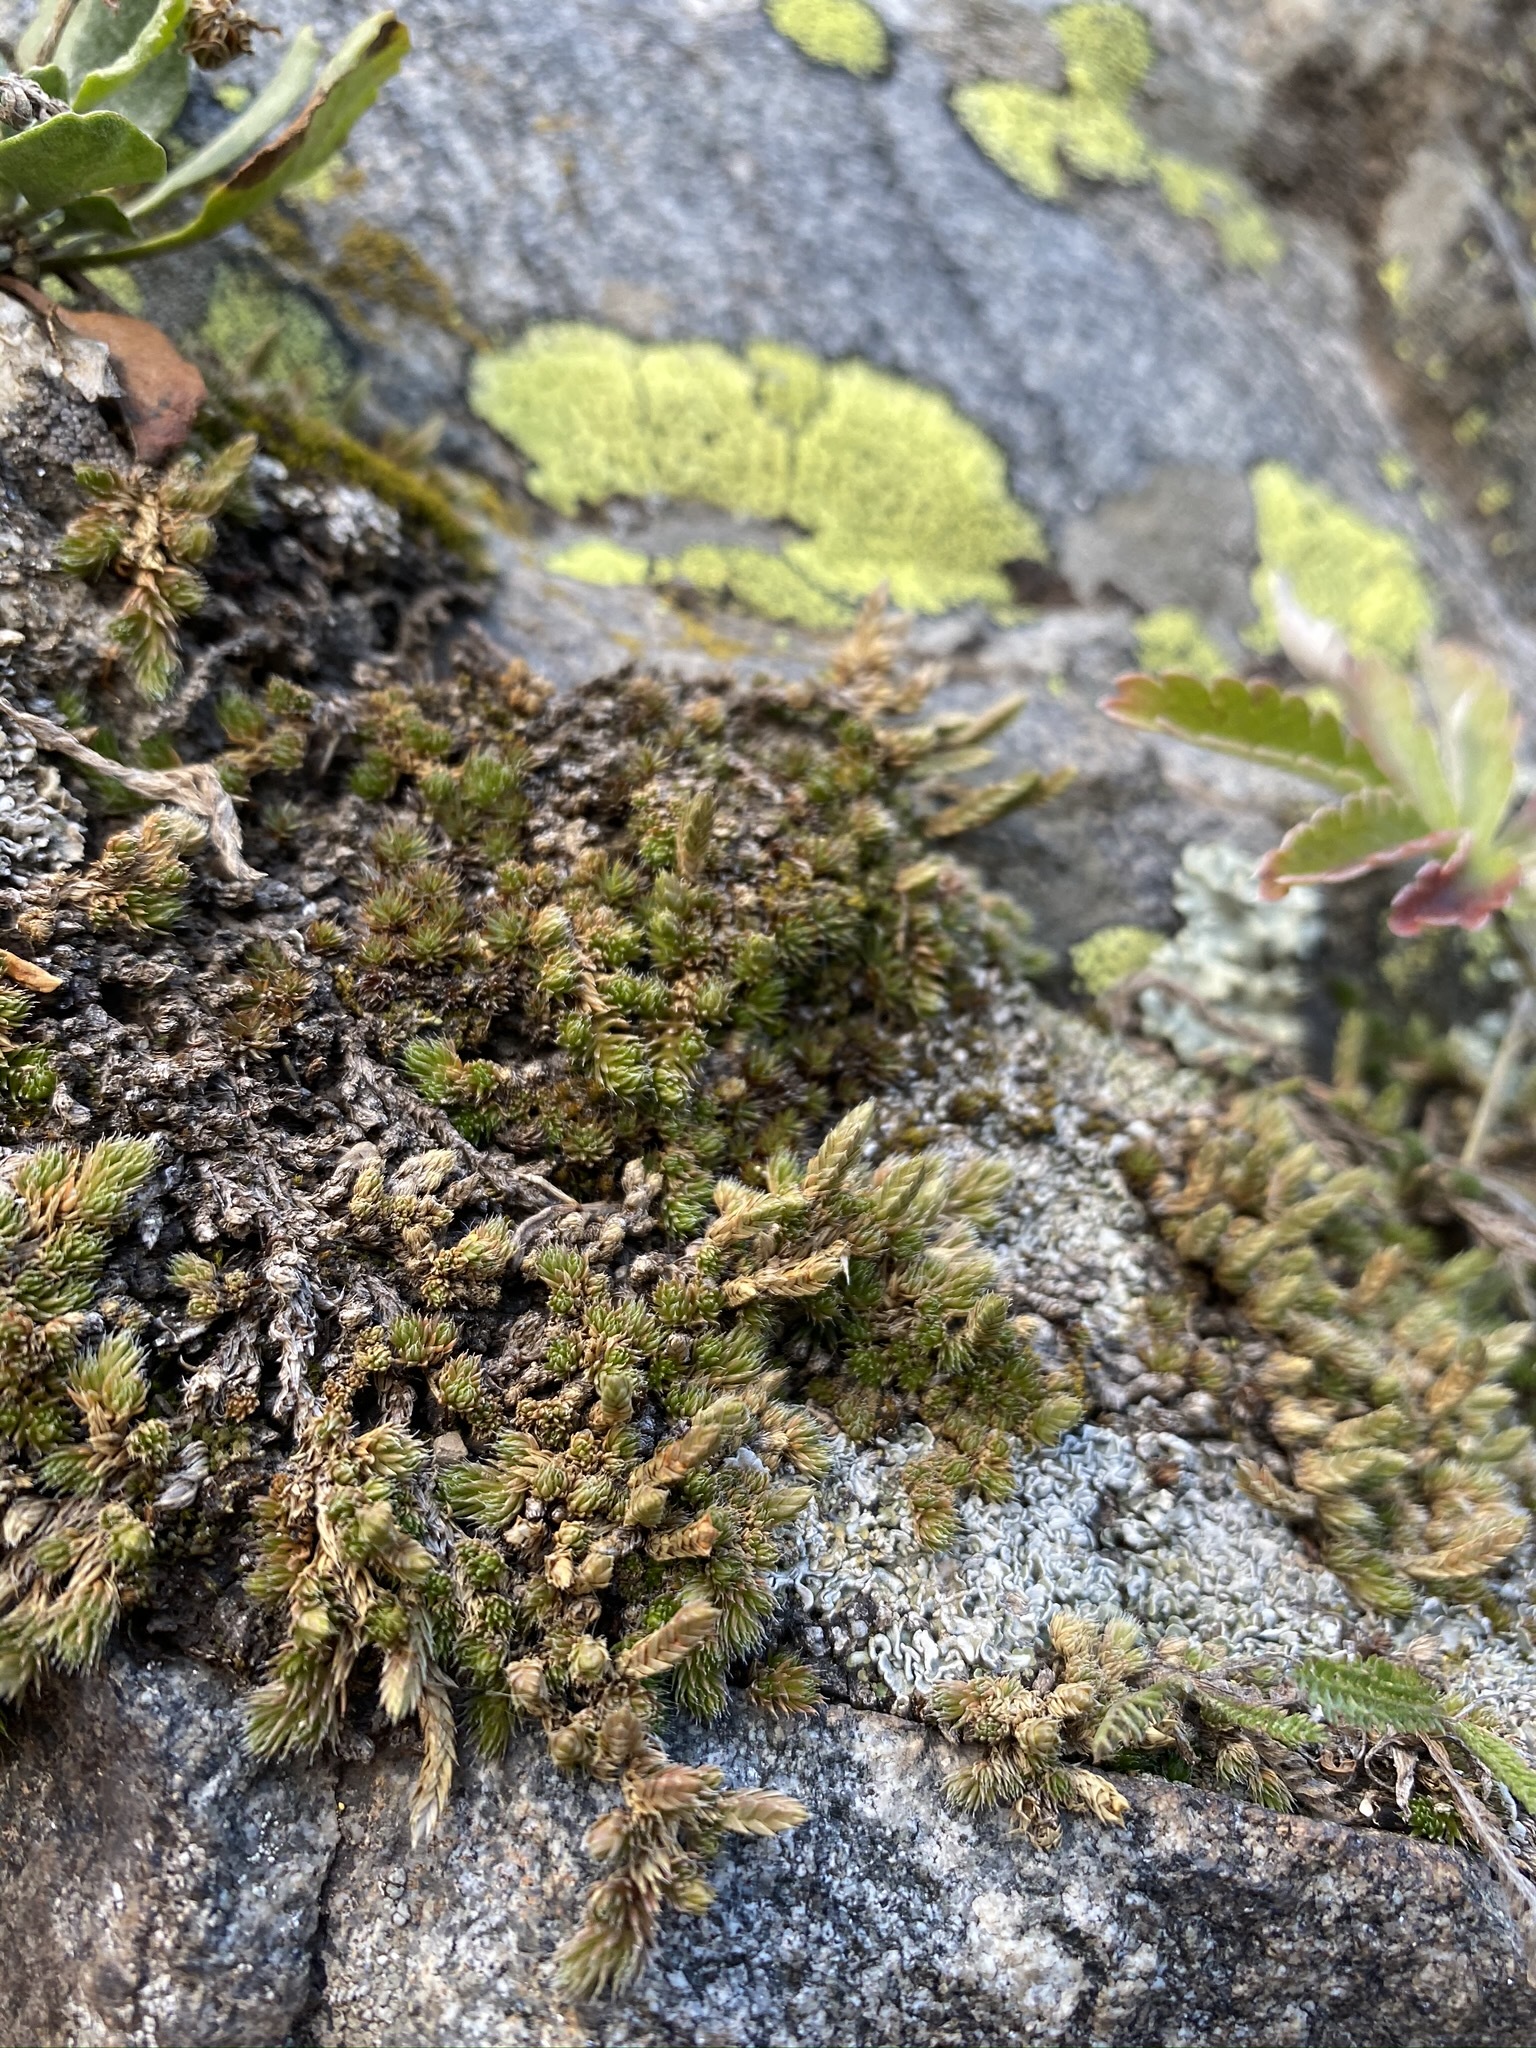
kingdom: Plantae
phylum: Tracheophyta
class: Lycopodiopsida
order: Selaginellales
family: Selaginellaceae
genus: Selaginella
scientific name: Selaginella densa
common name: Mountain spike-moss
